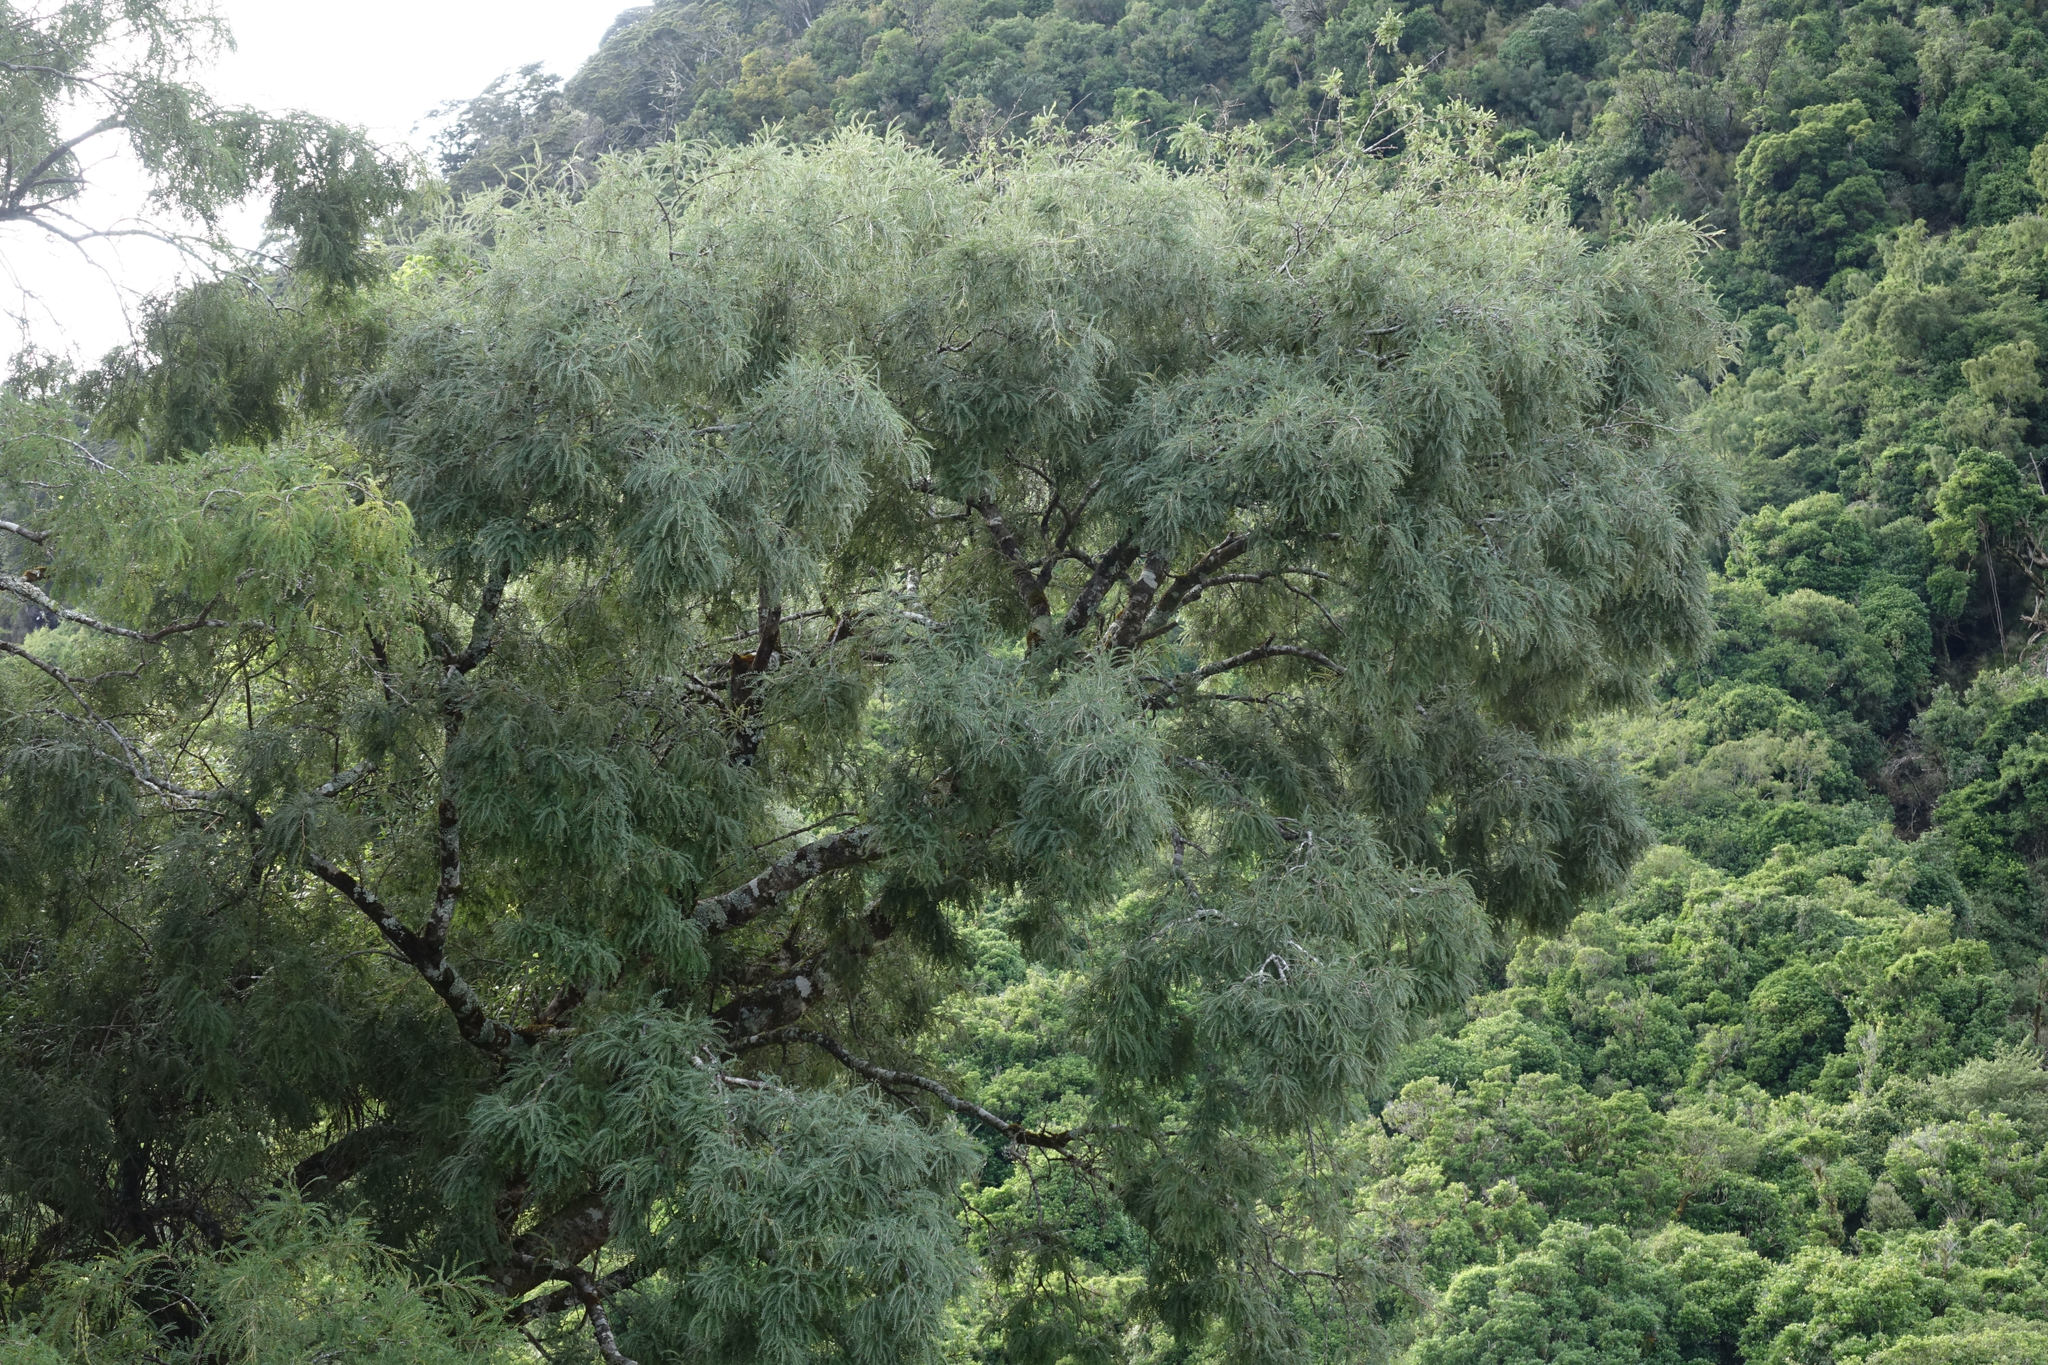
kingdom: Plantae
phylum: Tracheophyta
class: Magnoliopsida
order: Fabales
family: Fabaceae
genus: Sophora
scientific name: Sophora microphylla
